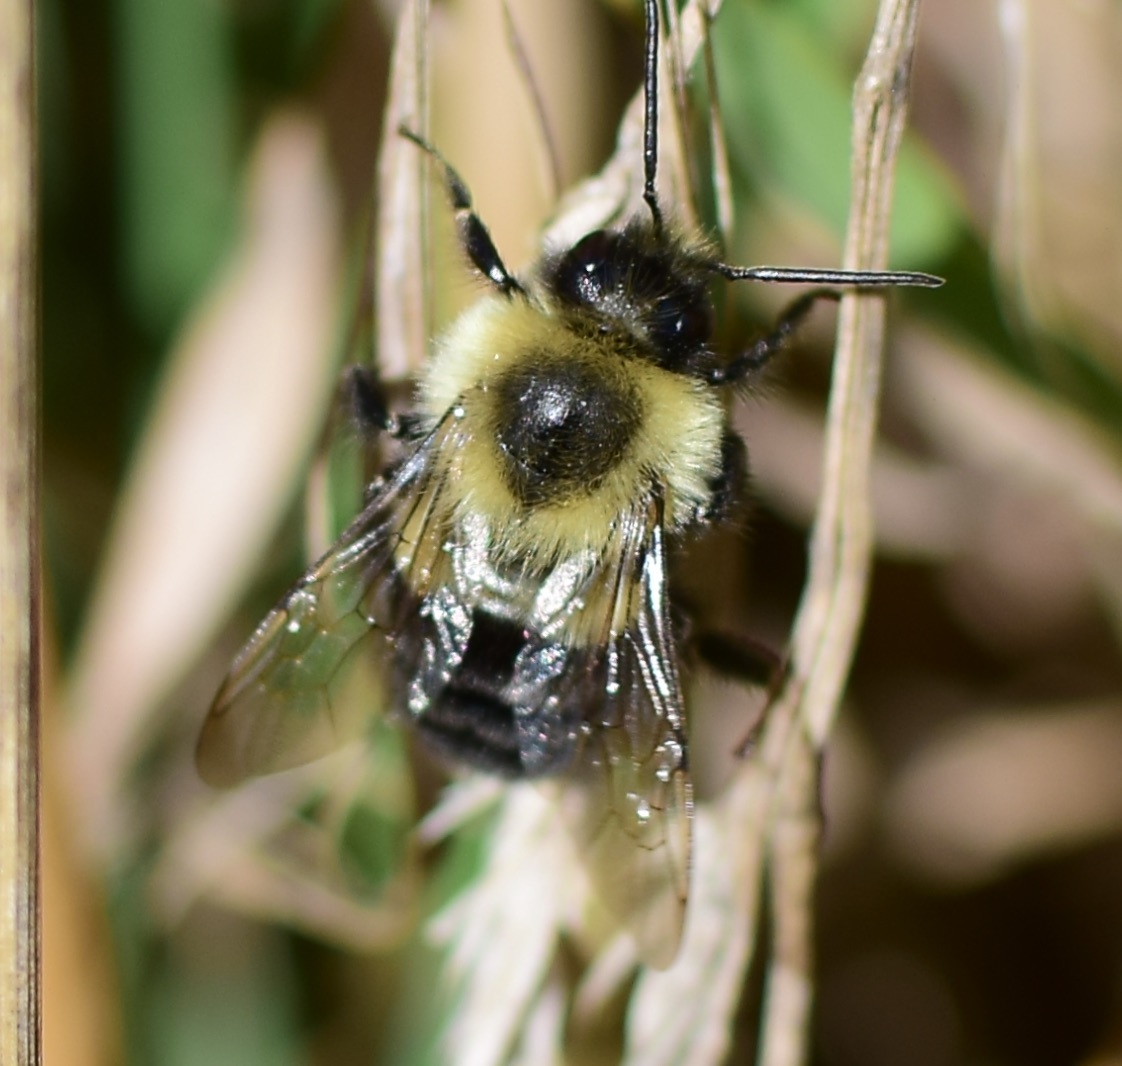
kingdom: Animalia
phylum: Arthropoda
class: Insecta
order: Hymenoptera
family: Apidae
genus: Bombus
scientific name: Bombus impatiens
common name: Common eastern bumble bee
